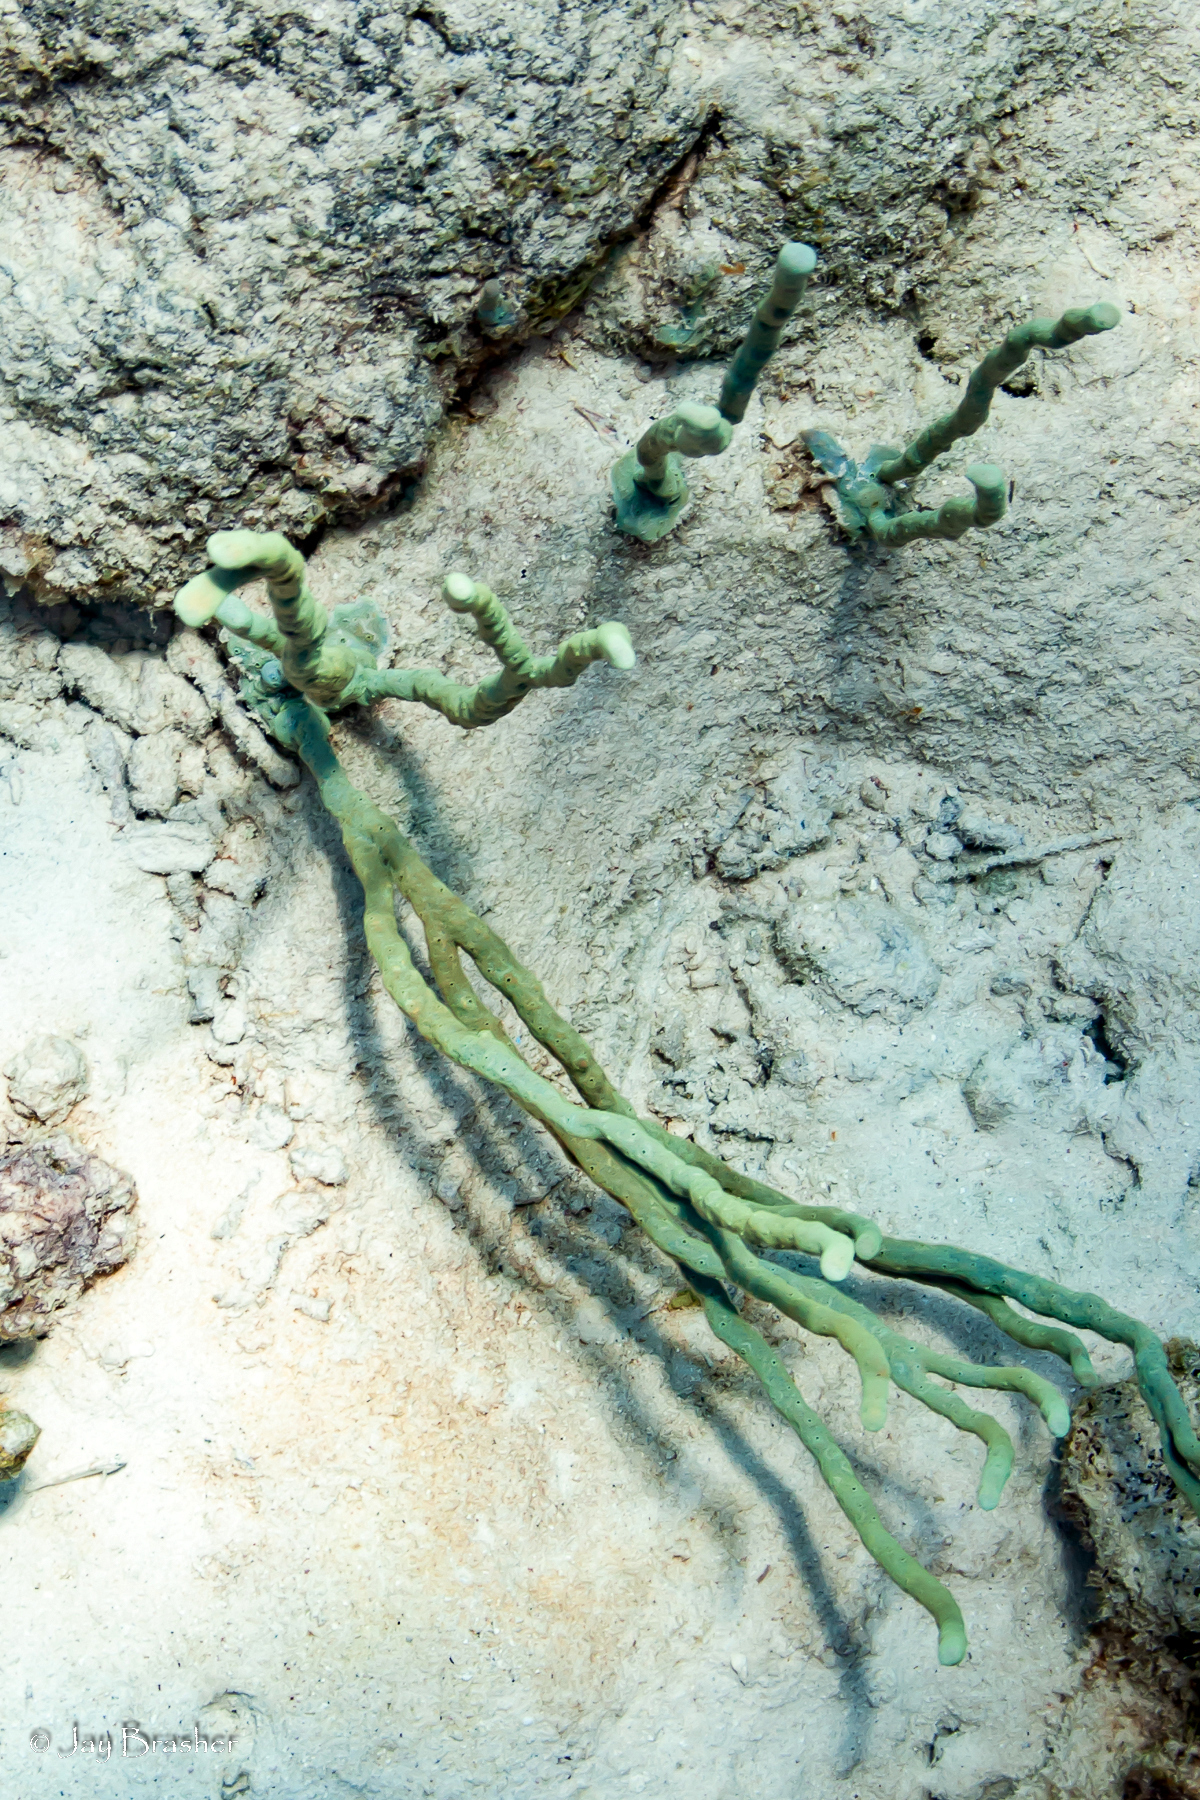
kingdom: Animalia
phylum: Porifera
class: Demospongiae
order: Verongiida
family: Aplysinidae
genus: Aplysina
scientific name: Aplysina cauliformis
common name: Branching candle sponge
